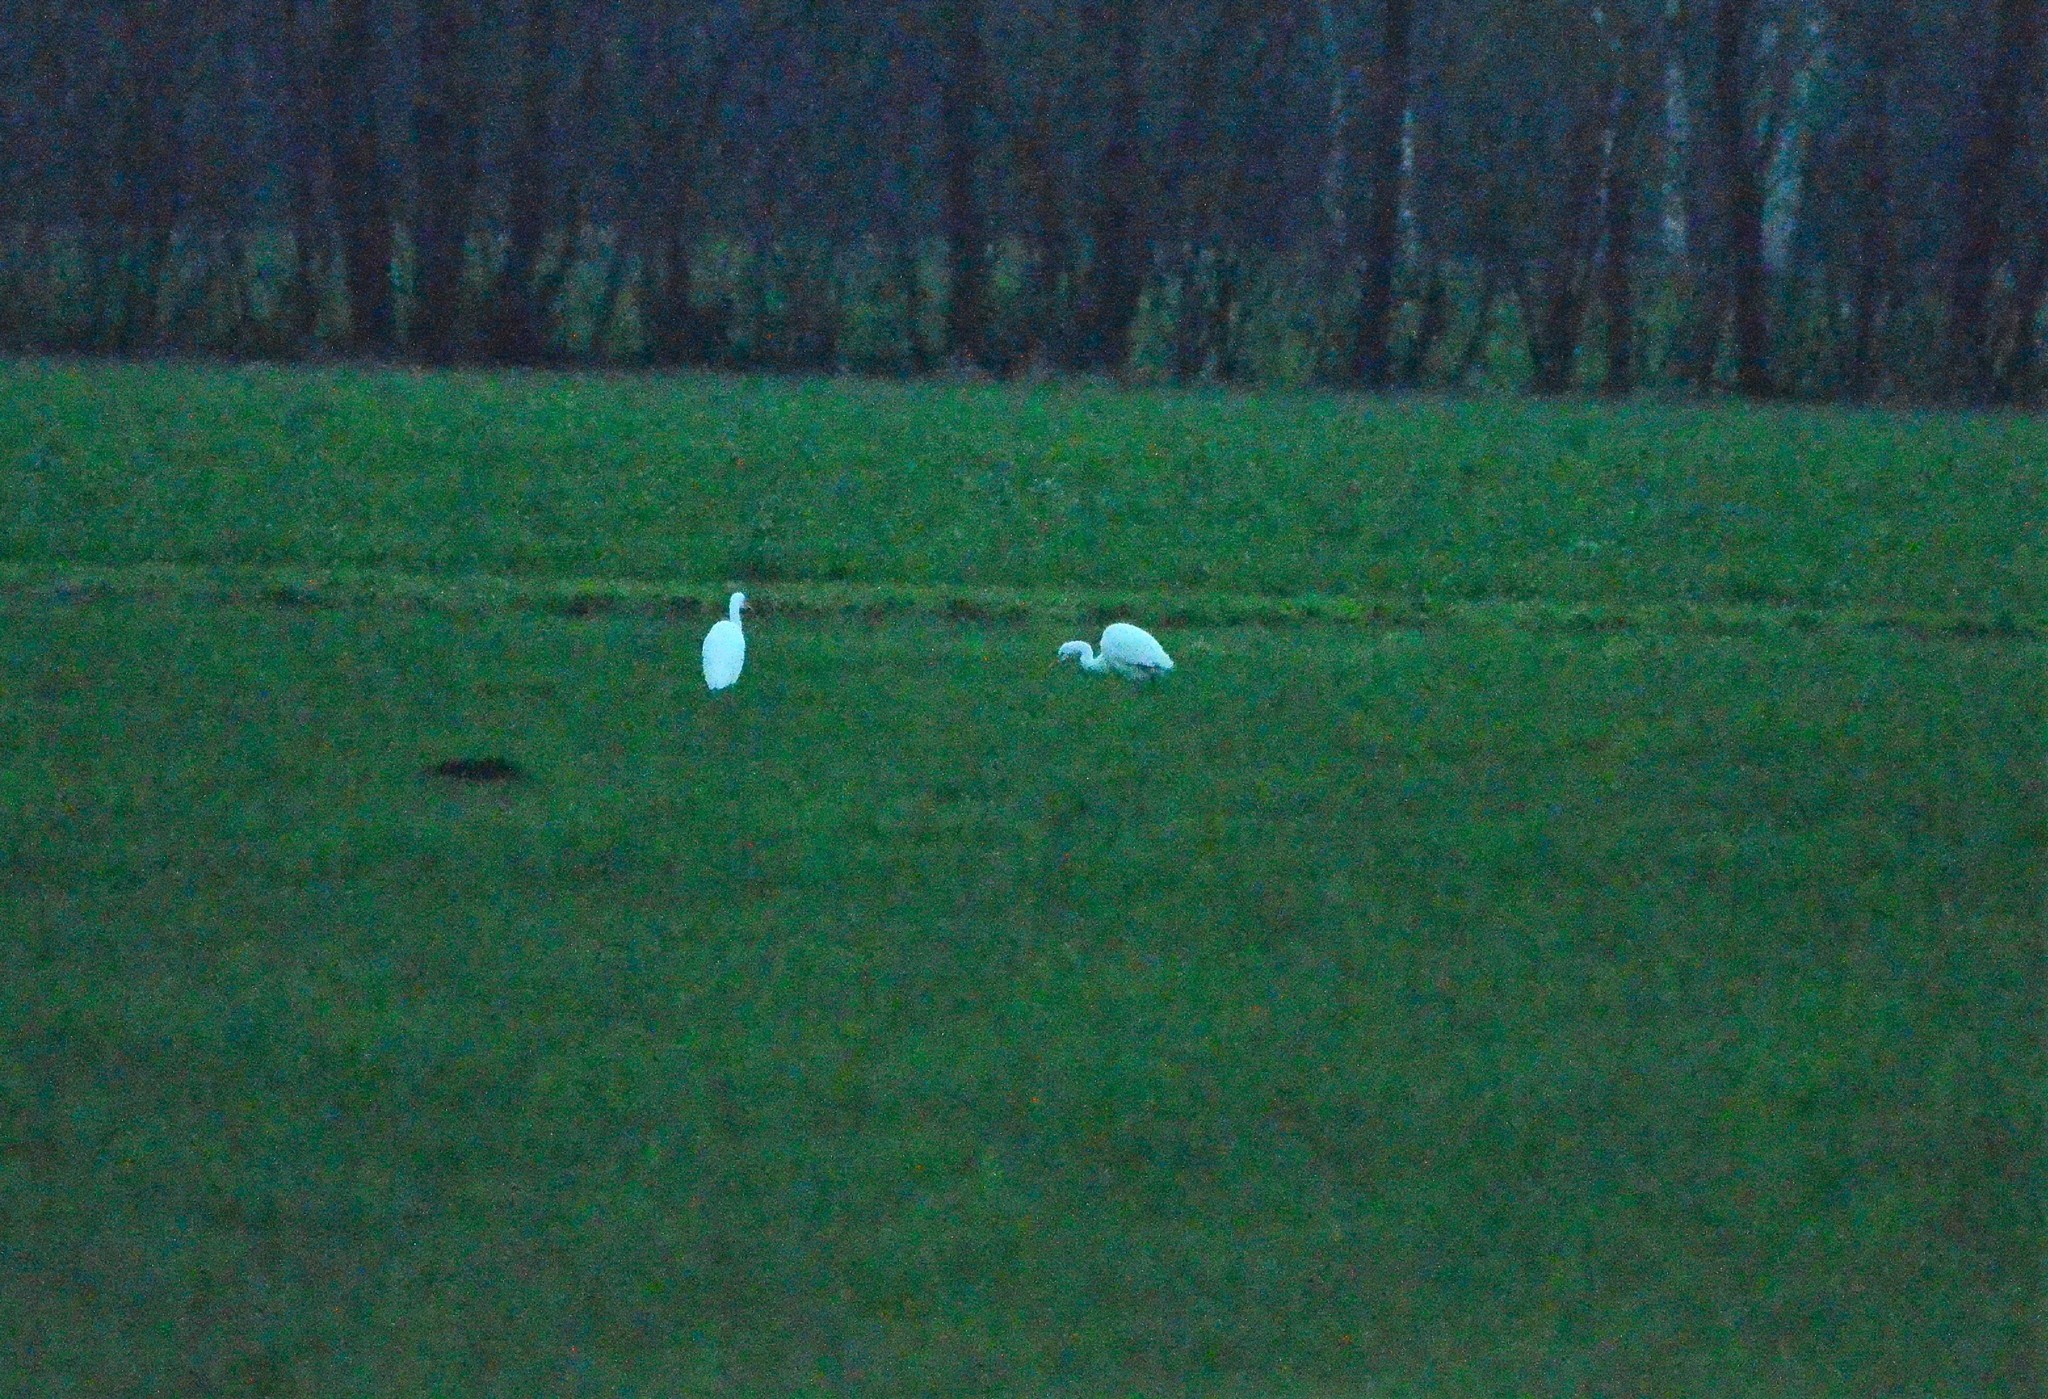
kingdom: Animalia
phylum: Chordata
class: Aves
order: Pelecaniformes
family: Ardeidae
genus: Ardea
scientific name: Ardea alba
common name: Great egret
